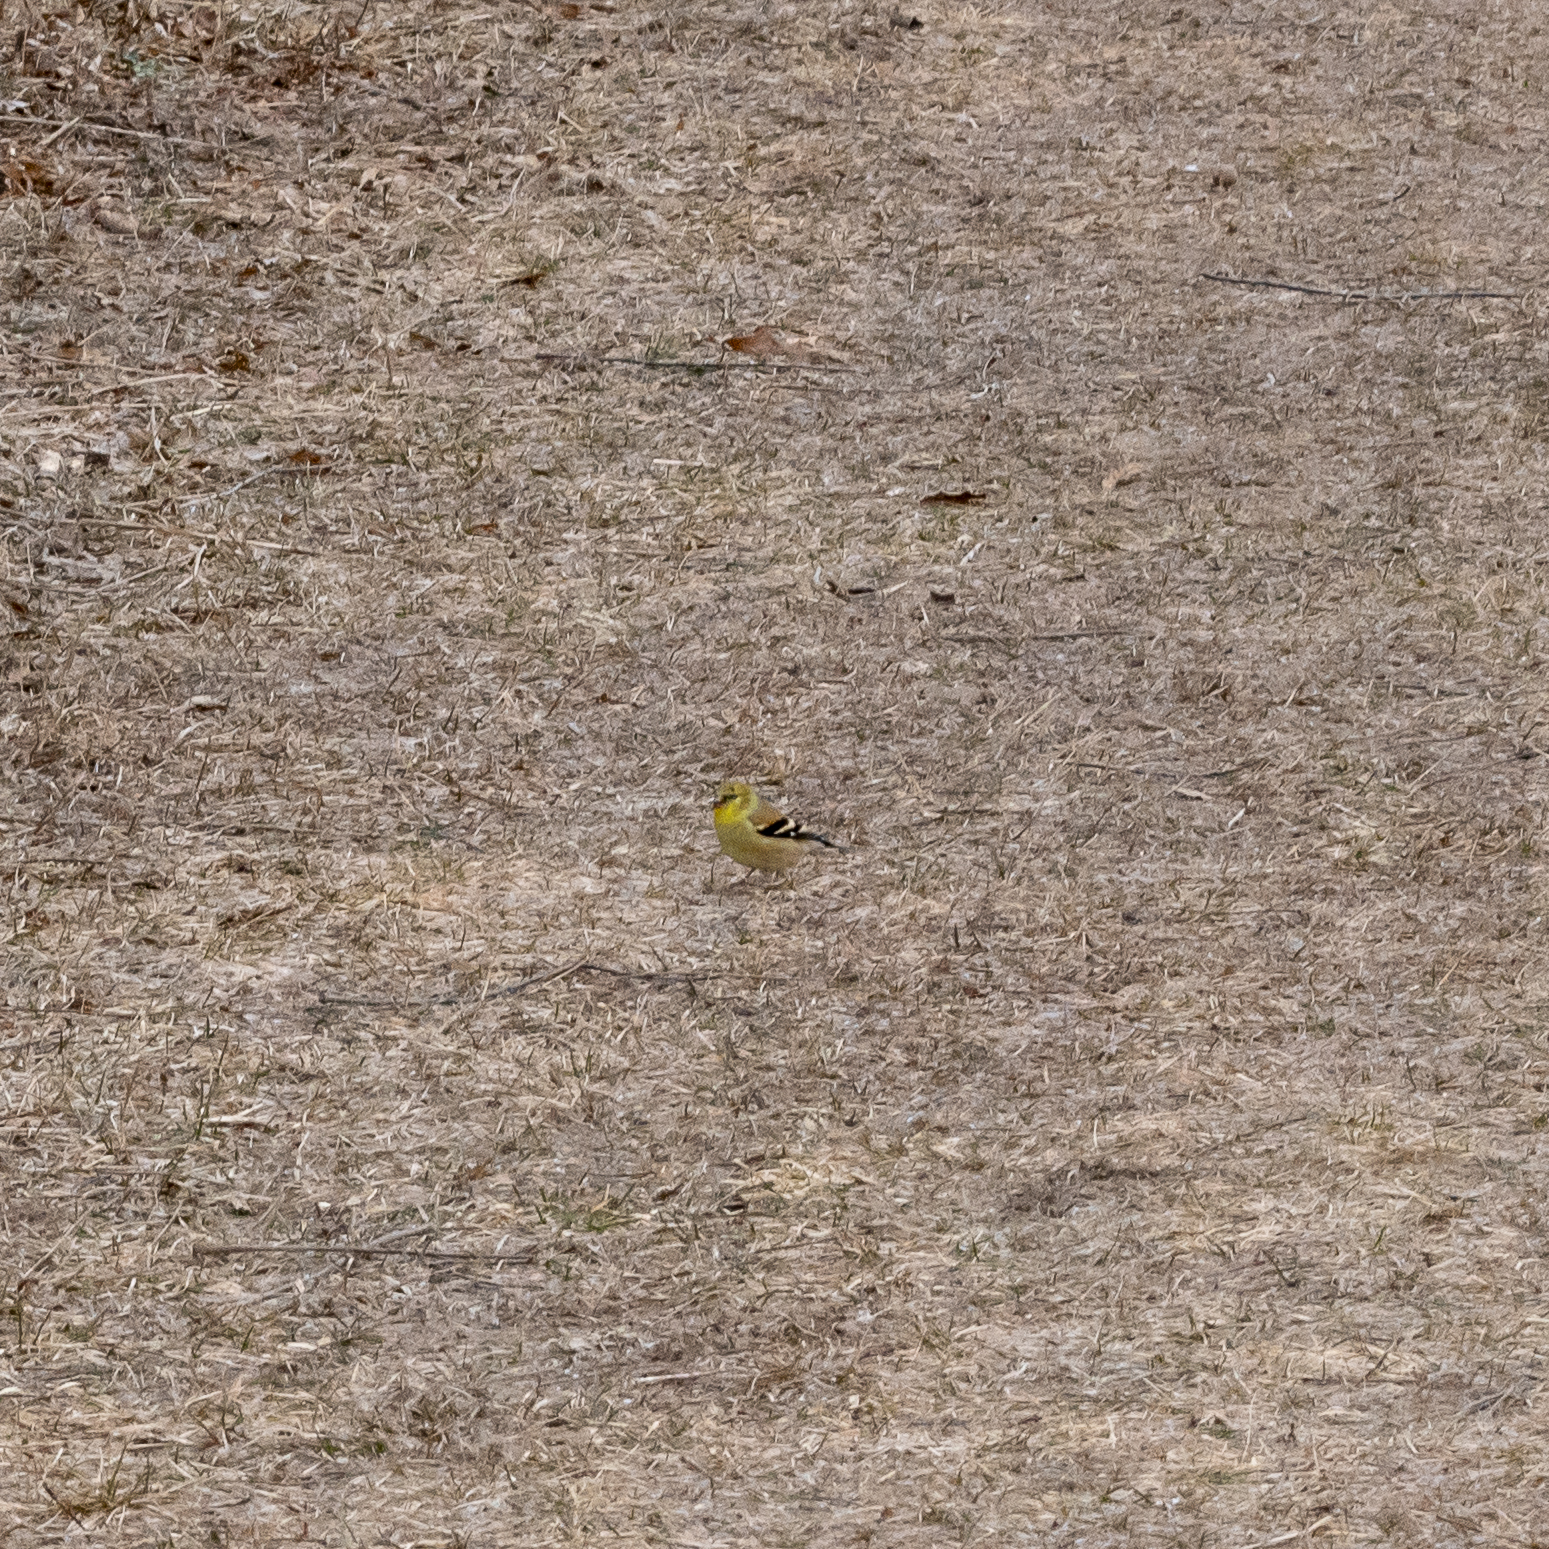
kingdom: Animalia
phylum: Chordata
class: Aves
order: Passeriformes
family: Fringillidae
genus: Spinus
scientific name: Spinus tristis
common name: American goldfinch
